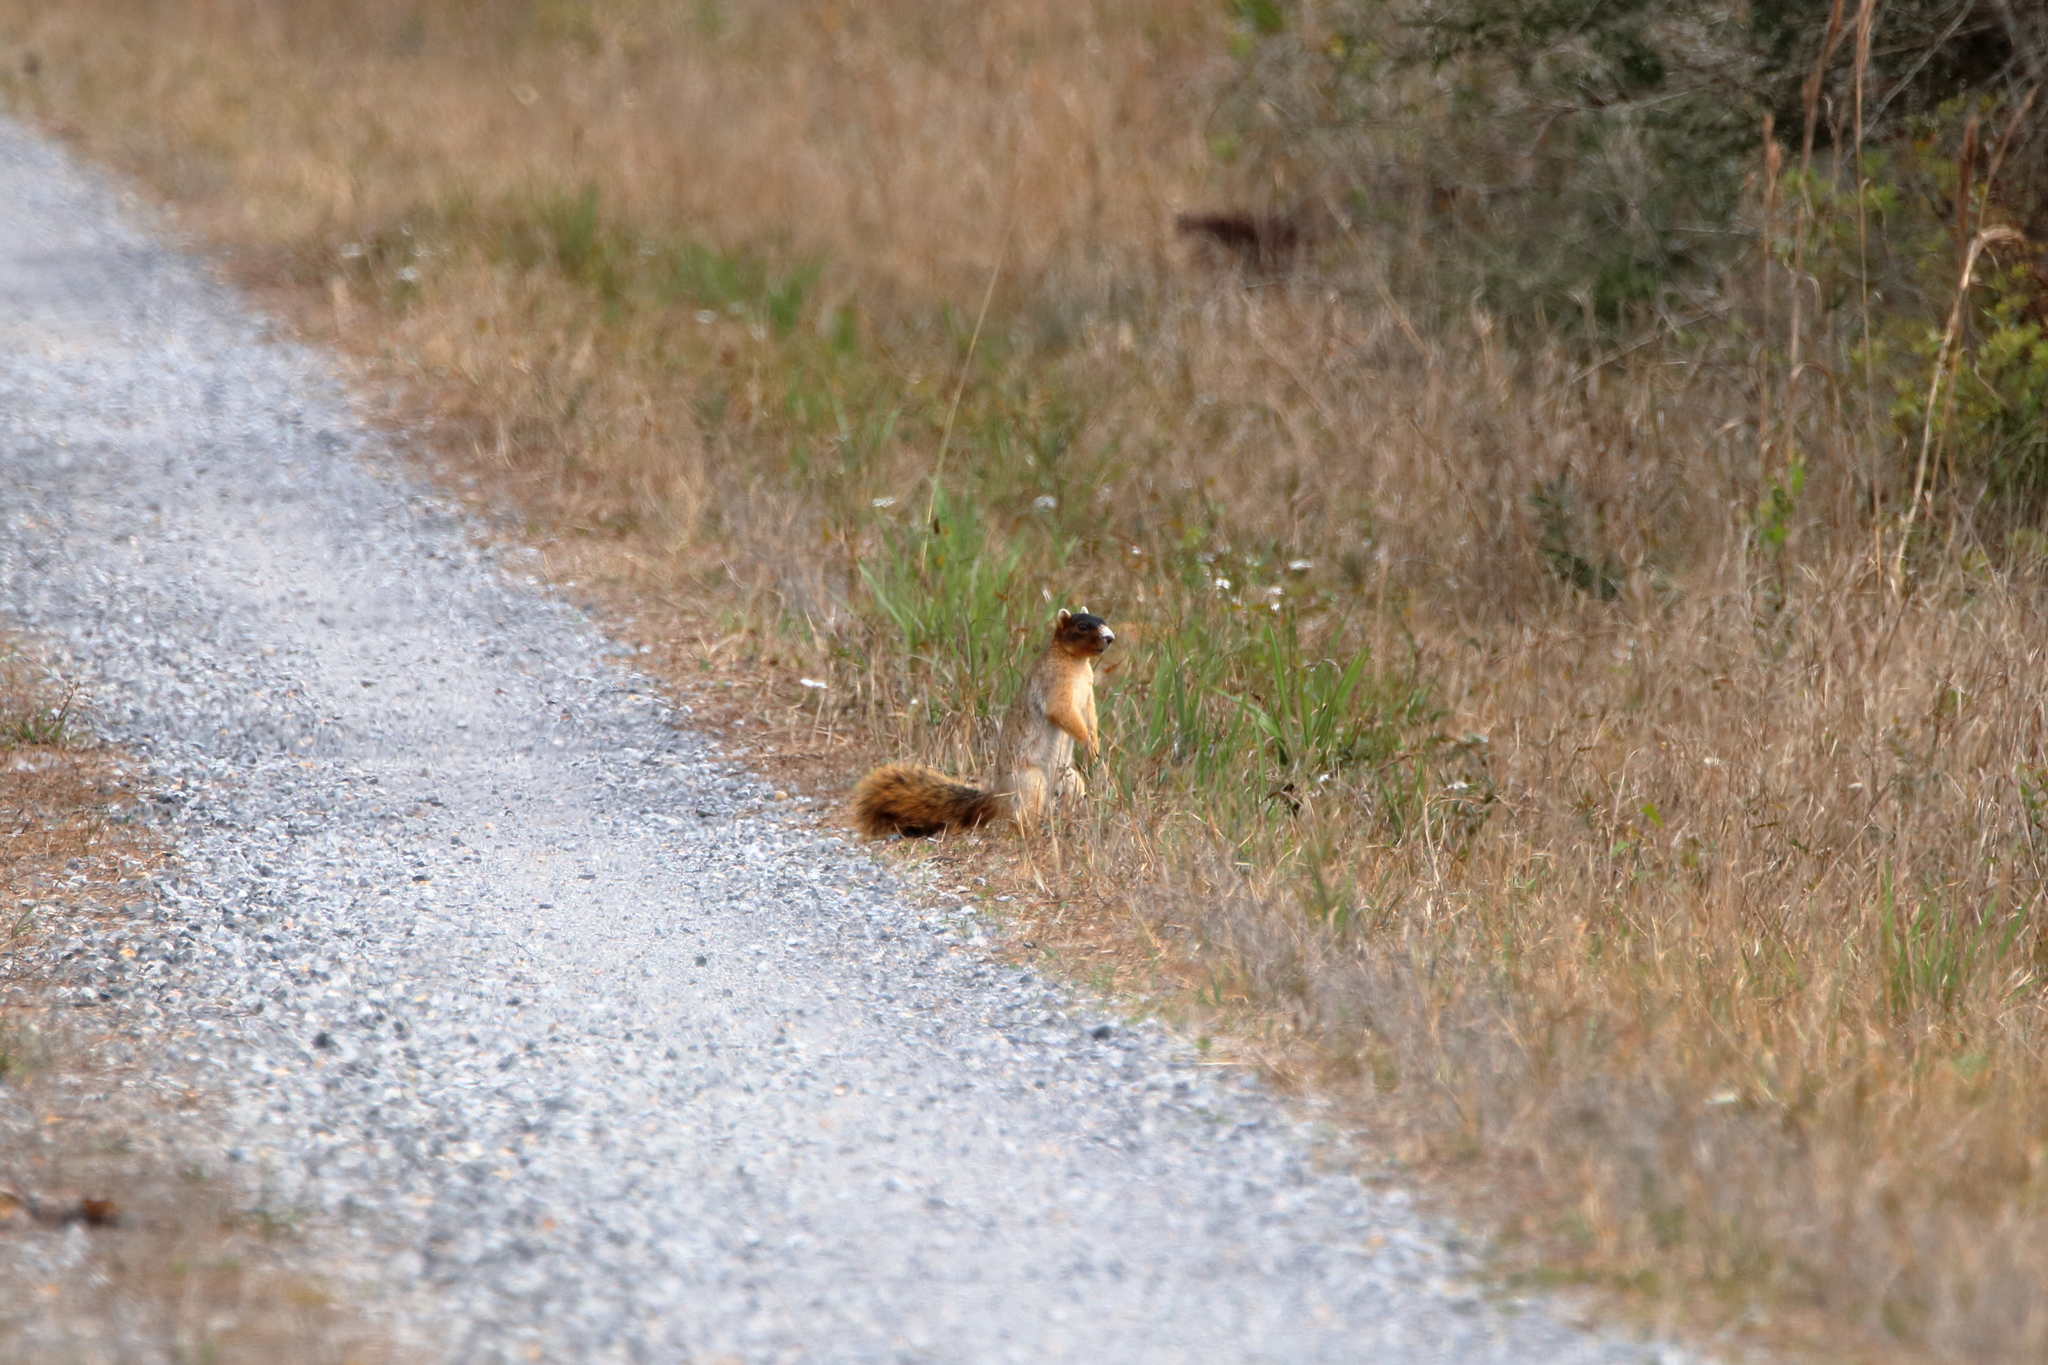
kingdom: Animalia
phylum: Chordata
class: Mammalia
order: Rodentia
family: Sciuridae
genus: Sciurus
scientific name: Sciurus niger
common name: Fox squirrel
